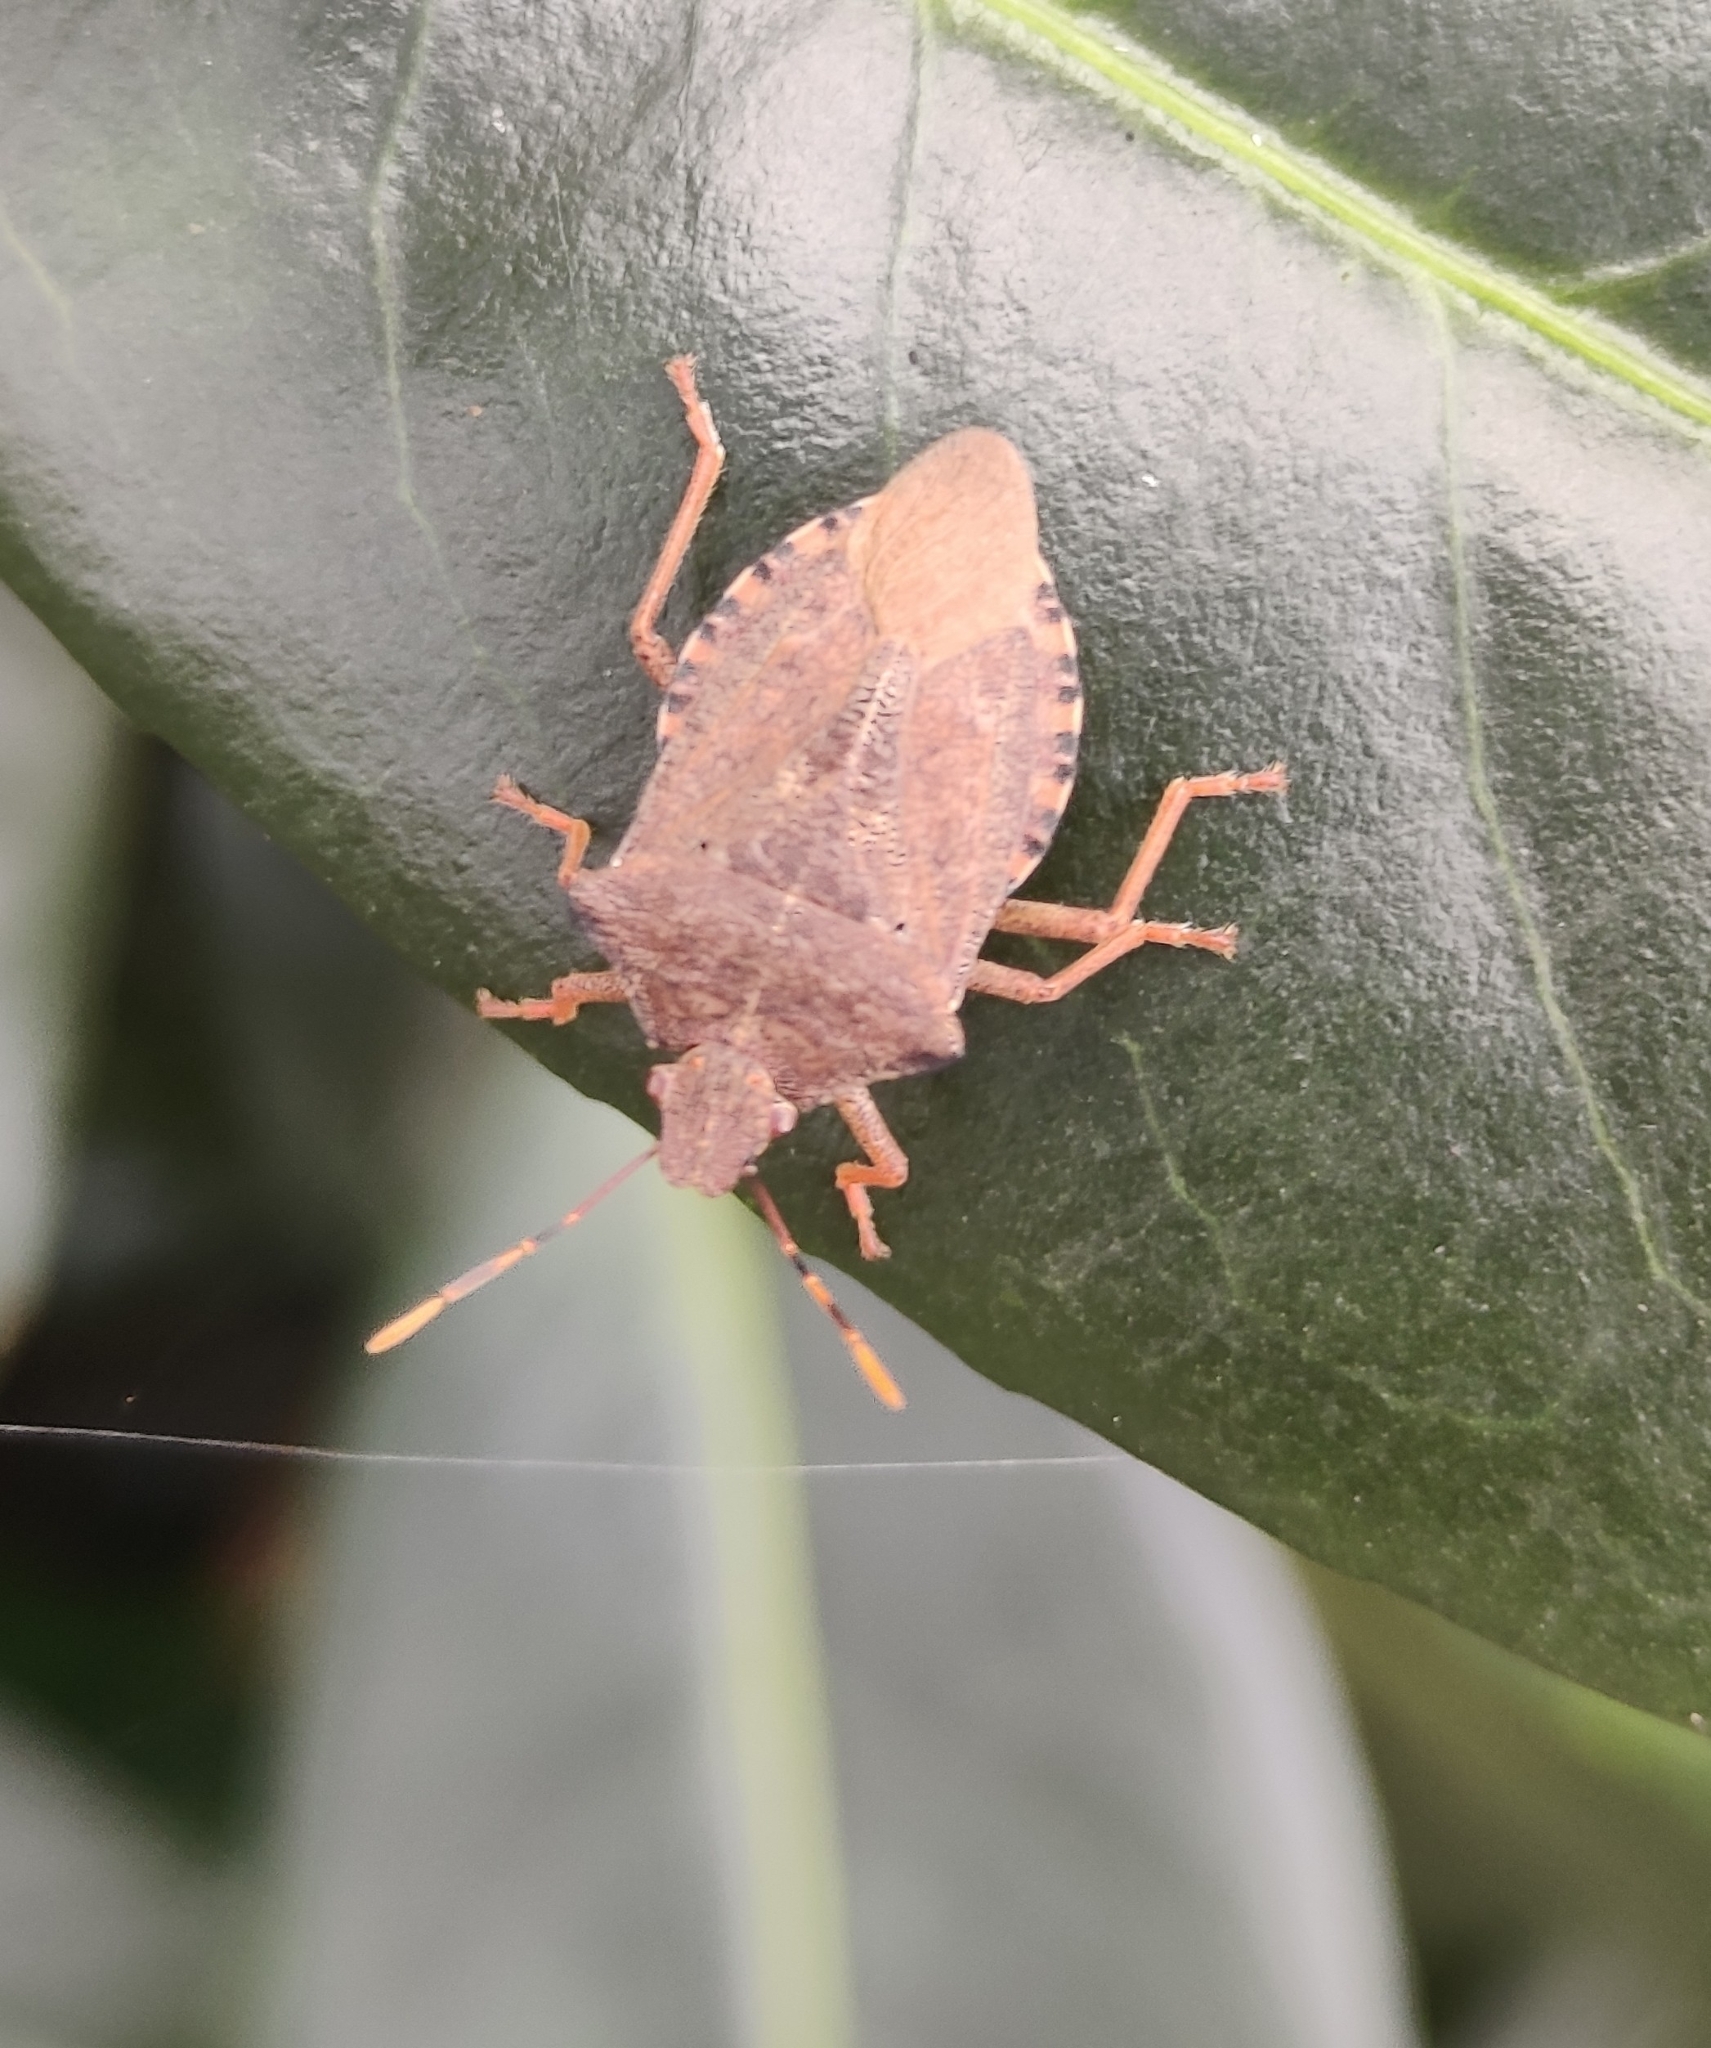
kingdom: Animalia
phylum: Arthropoda
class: Insecta
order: Hemiptera
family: Pentatomidae
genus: Arma
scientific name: Arma custos
